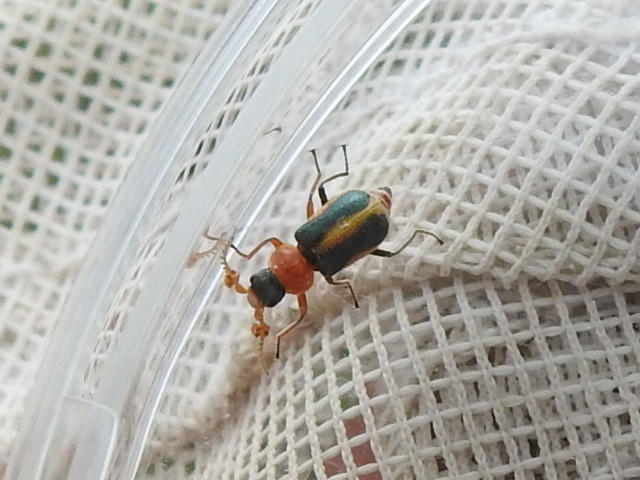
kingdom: Animalia
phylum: Arthropoda
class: Insecta
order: Coleoptera
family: Melyridae
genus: Collops
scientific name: Collops
